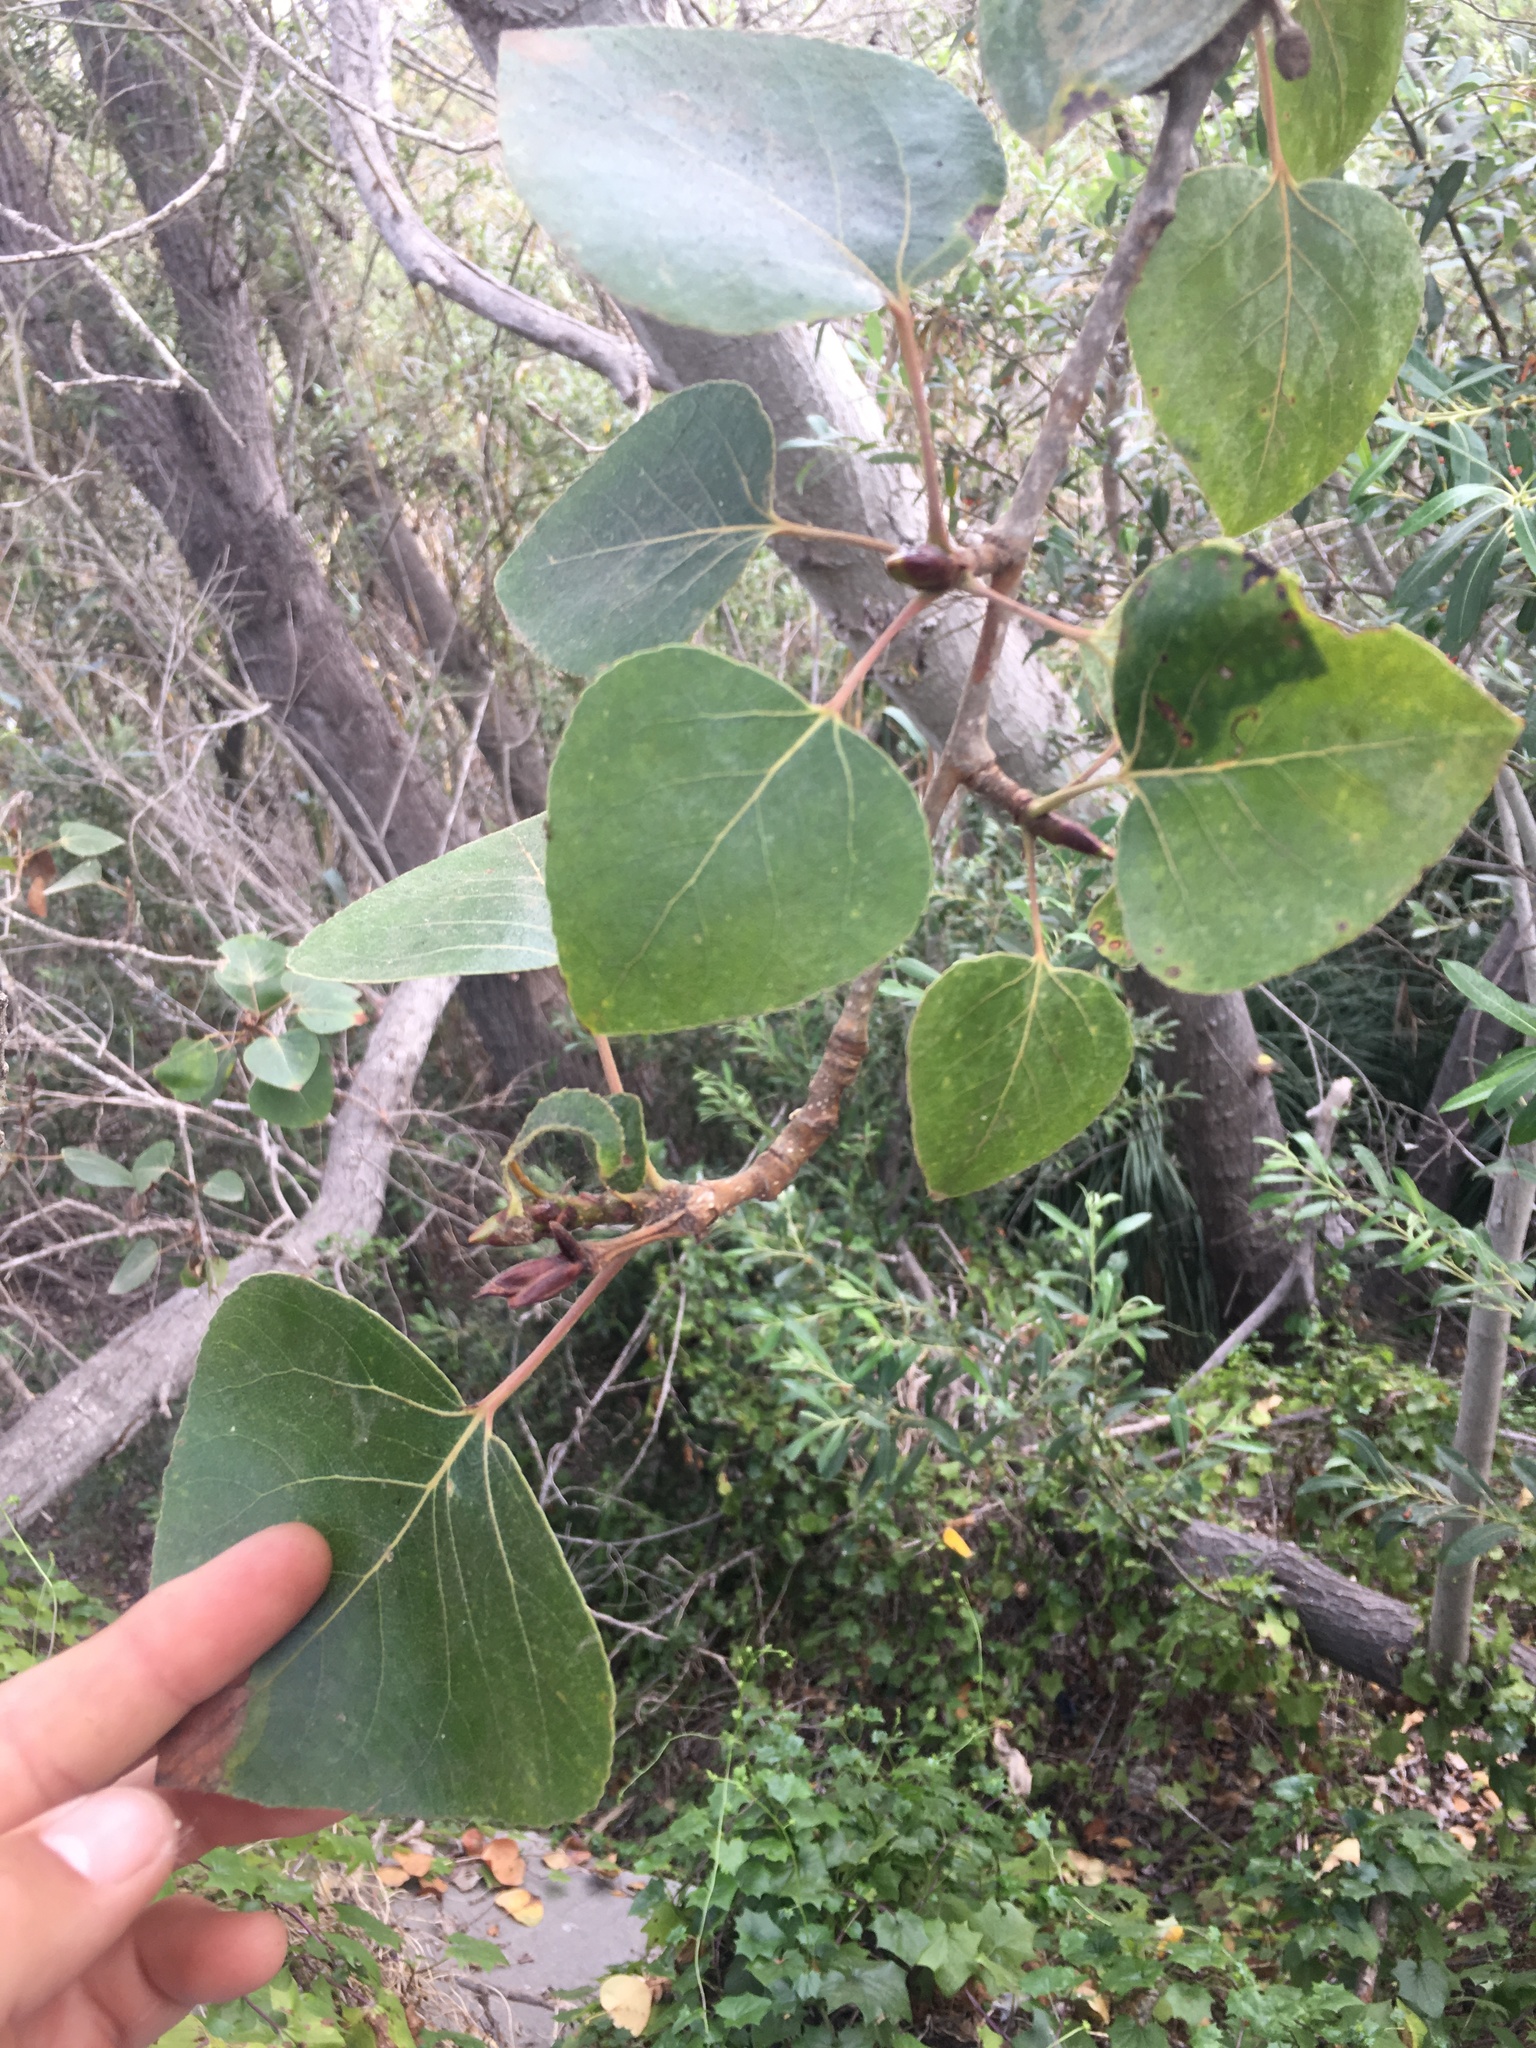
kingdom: Plantae
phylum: Tracheophyta
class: Magnoliopsida
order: Malpighiales
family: Salicaceae
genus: Populus
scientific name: Populus trichocarpa
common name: Black cottonwood
